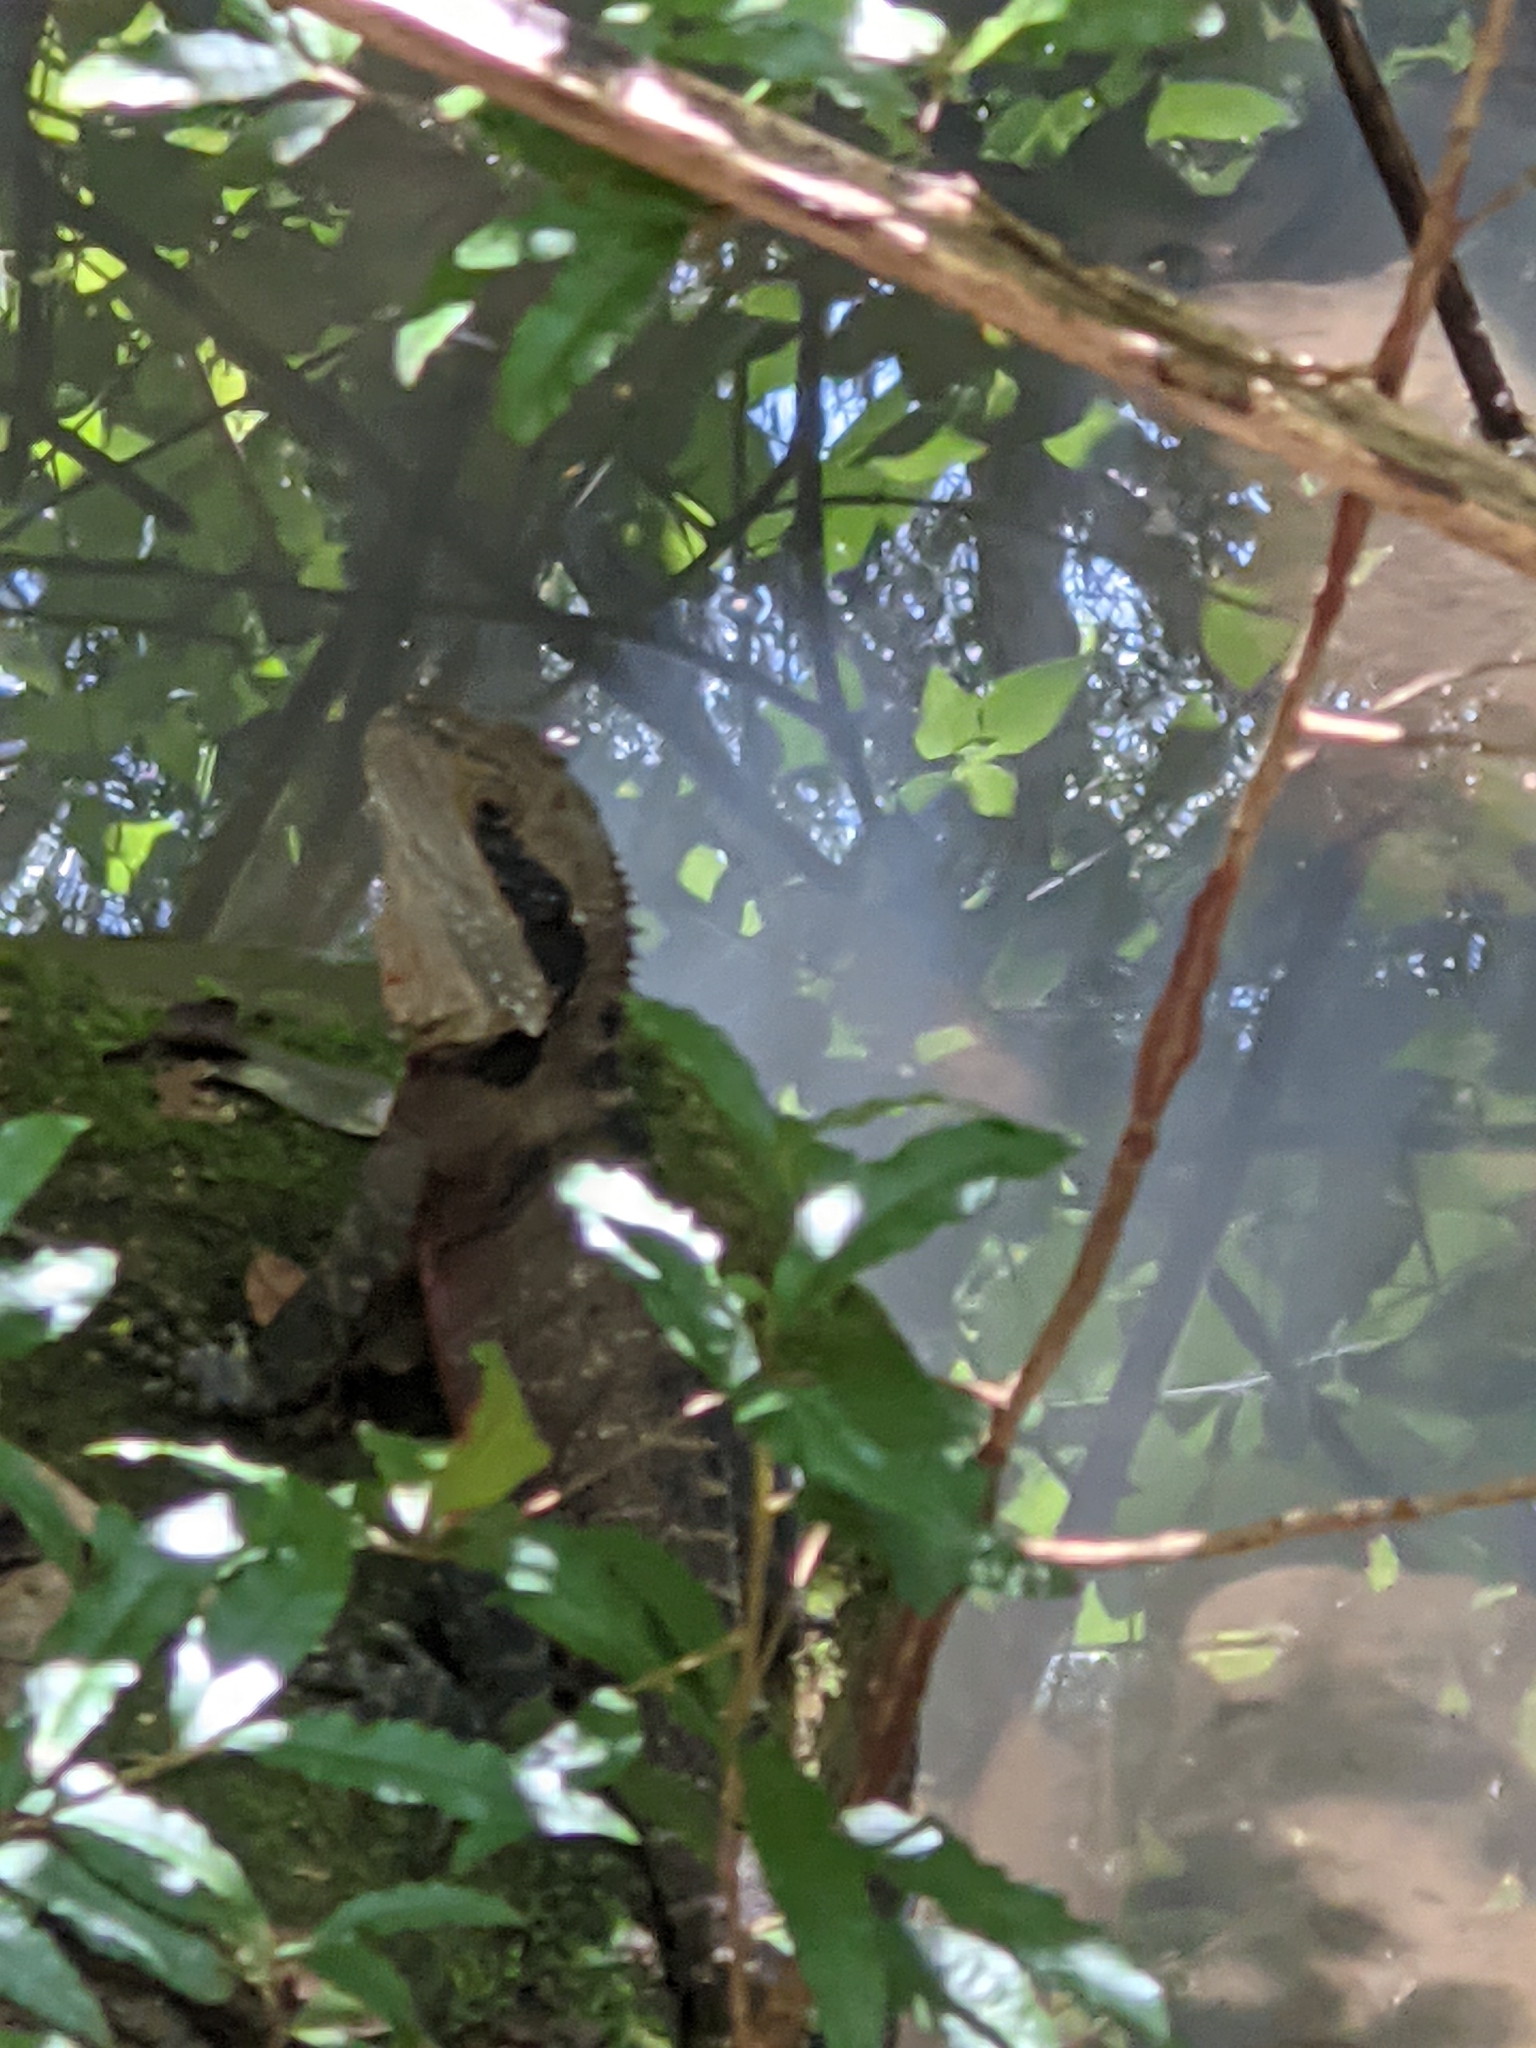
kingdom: Animalia
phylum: Chordata
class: Squamata
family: Agamidae
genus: Intellagama
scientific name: Intellagama lesueurii
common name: Eastern water dragon
